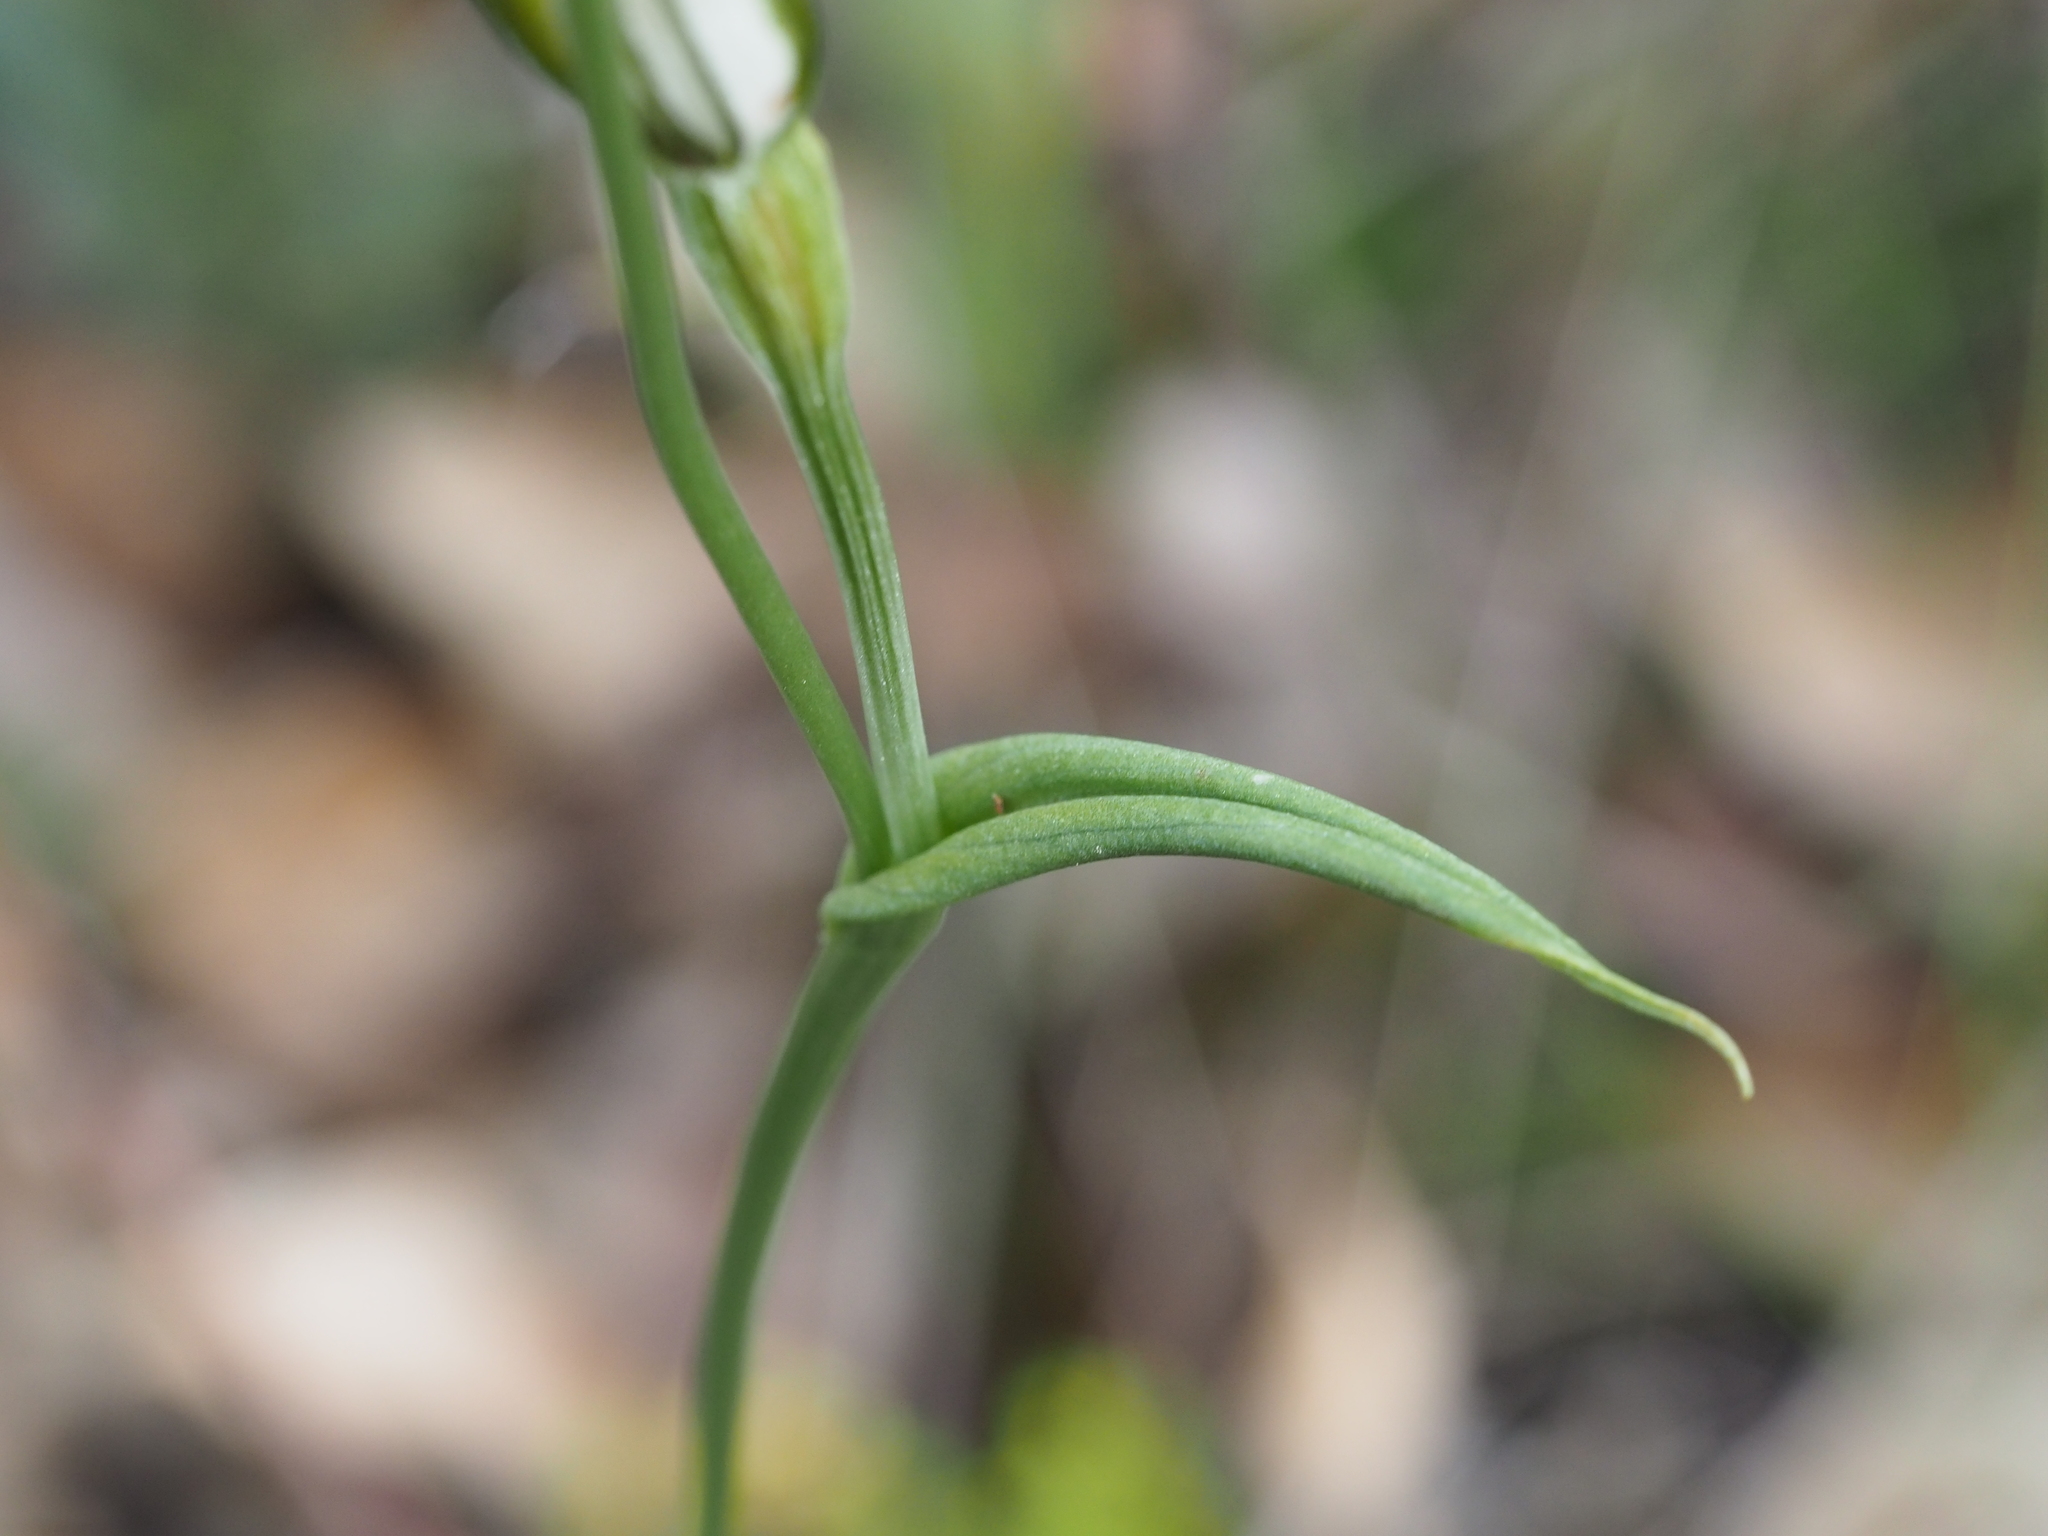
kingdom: Plantae
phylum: Tracheophyta
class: Liliopsida
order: Asparagales
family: Orchidaceae
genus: Pterostylis
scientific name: Pterostylis recurva
